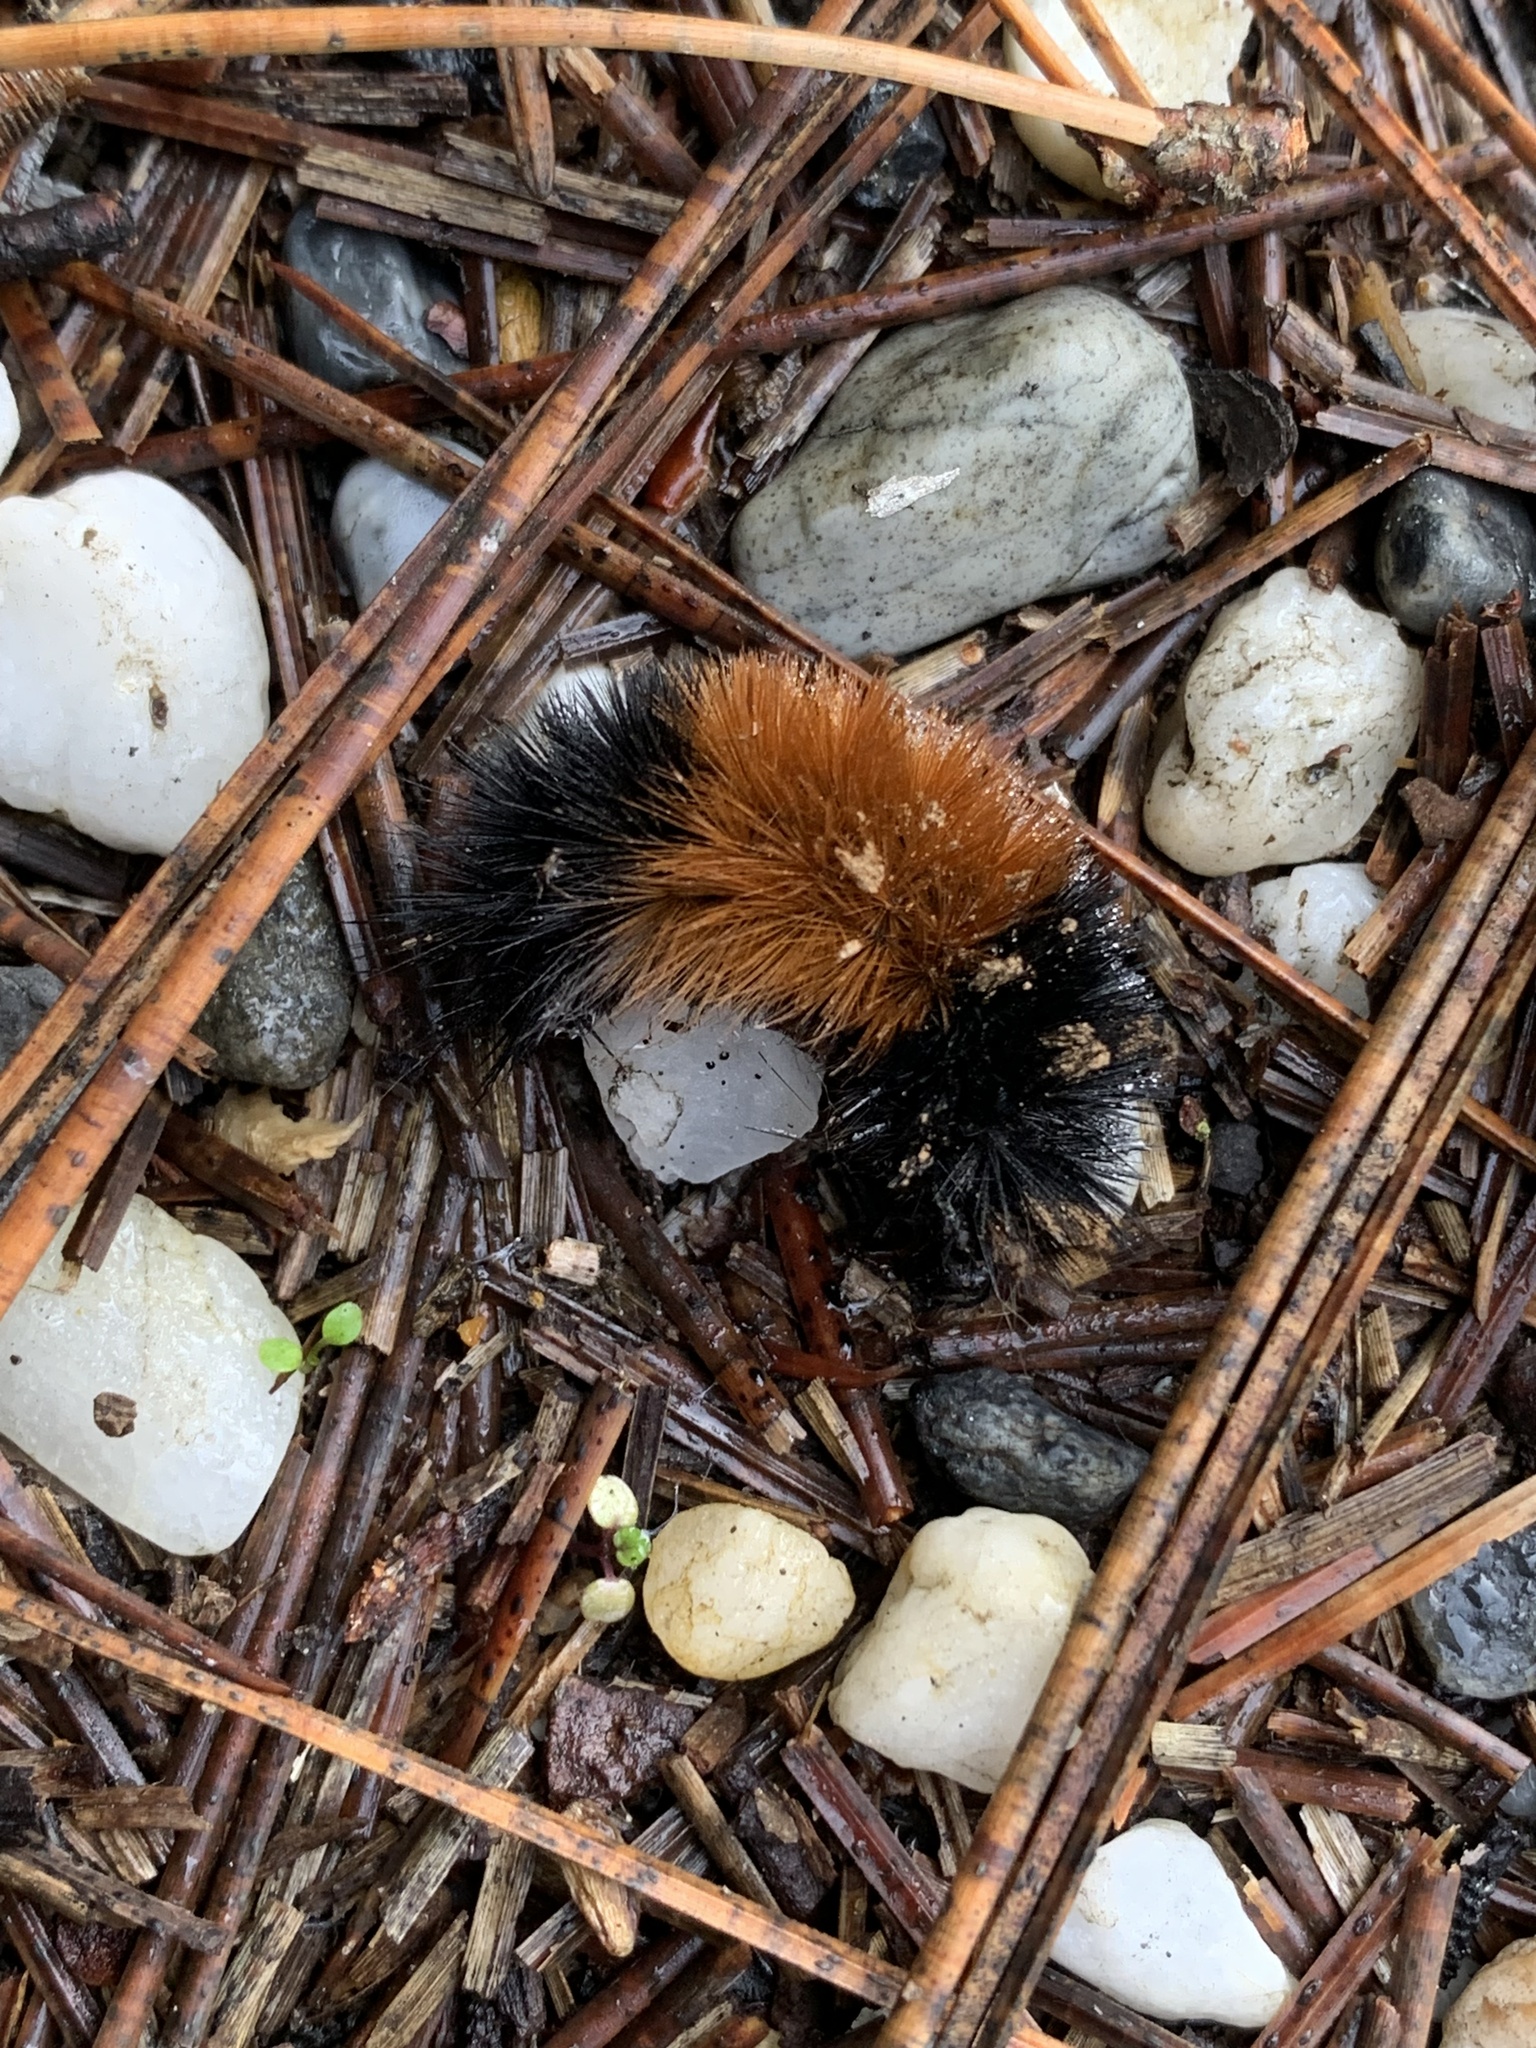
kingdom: Animalia
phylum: Arthropoda
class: Insecta
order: Lepidoptera
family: Erebidae
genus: Pyrrharctia
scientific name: Pyrrharctia isabella
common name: Isabella tiger moth
